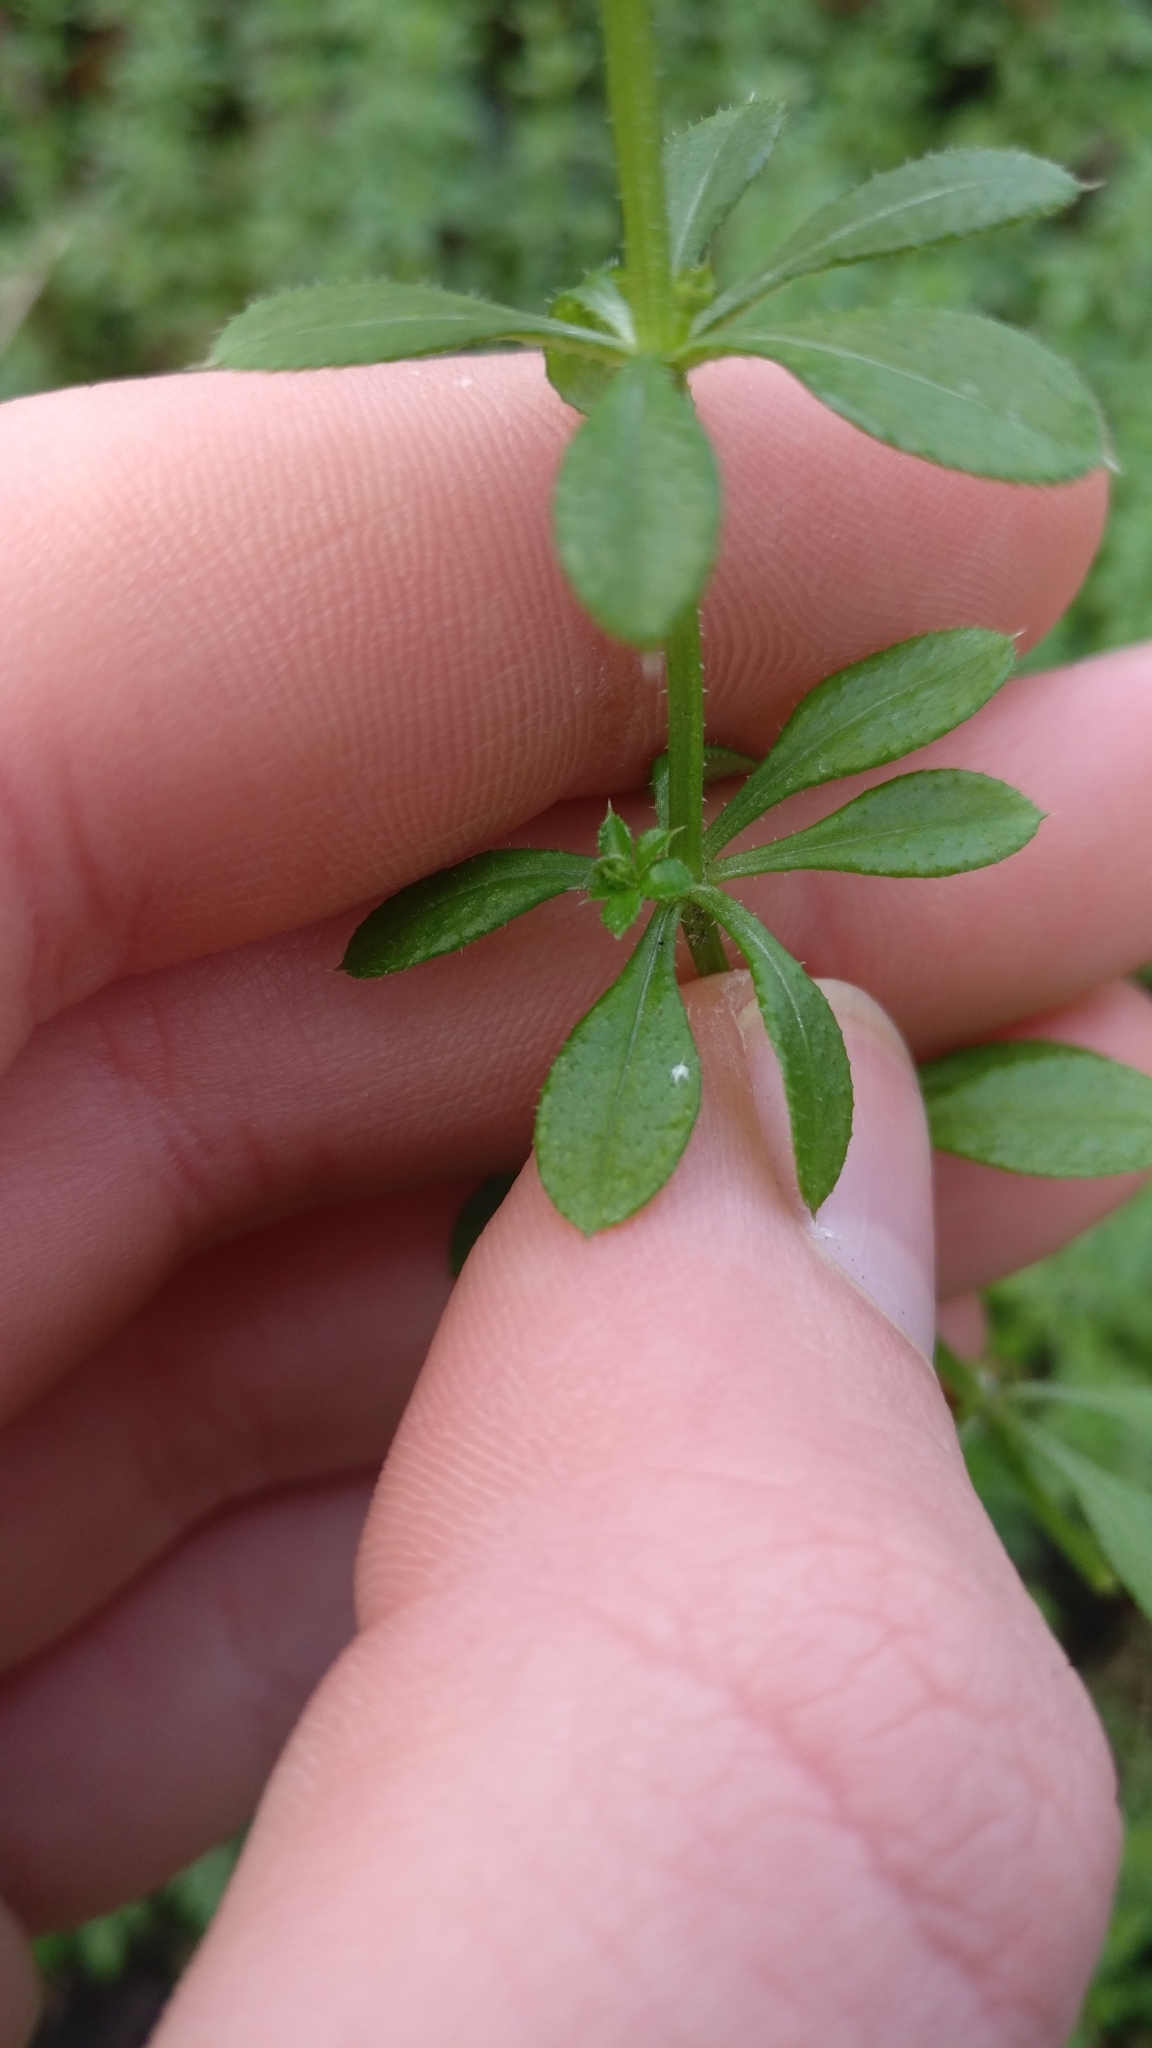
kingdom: Plantae
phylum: Tracheophyta
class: Magnoliopsida
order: Gentianales
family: Rubiaceae
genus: Galium
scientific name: Galium aparine
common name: Cleavers
